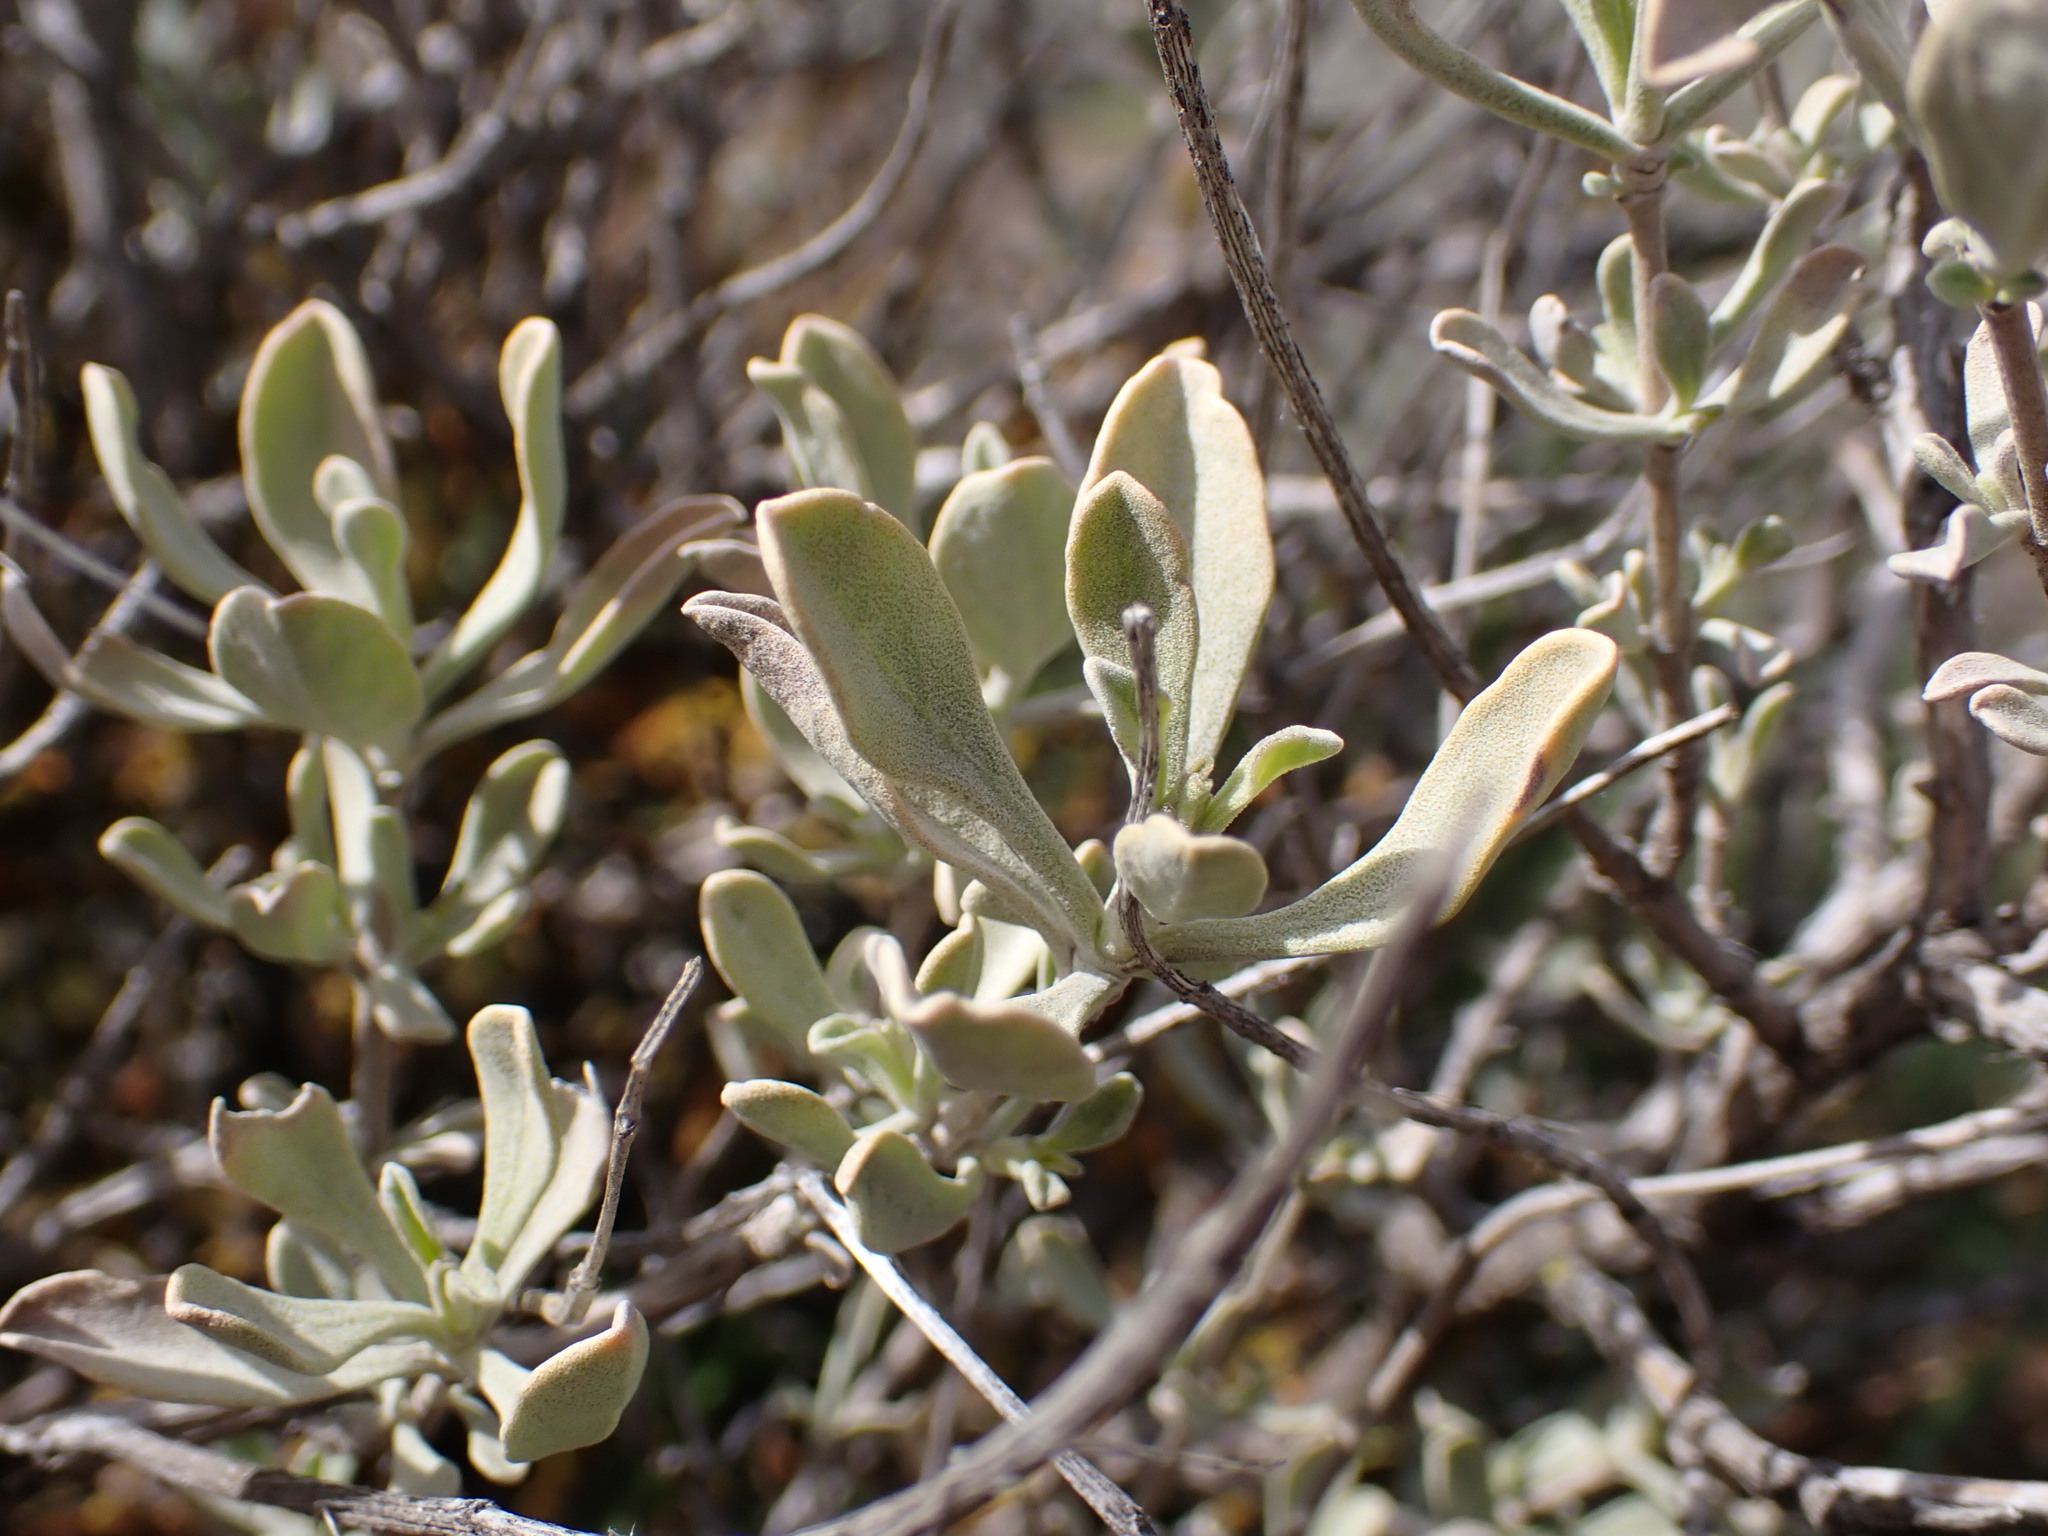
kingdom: Plantae
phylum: Tracheophyta
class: Magnoliopsida
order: Lamiales
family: Lamiaceae
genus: Salvia
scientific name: Salvia dorrii
